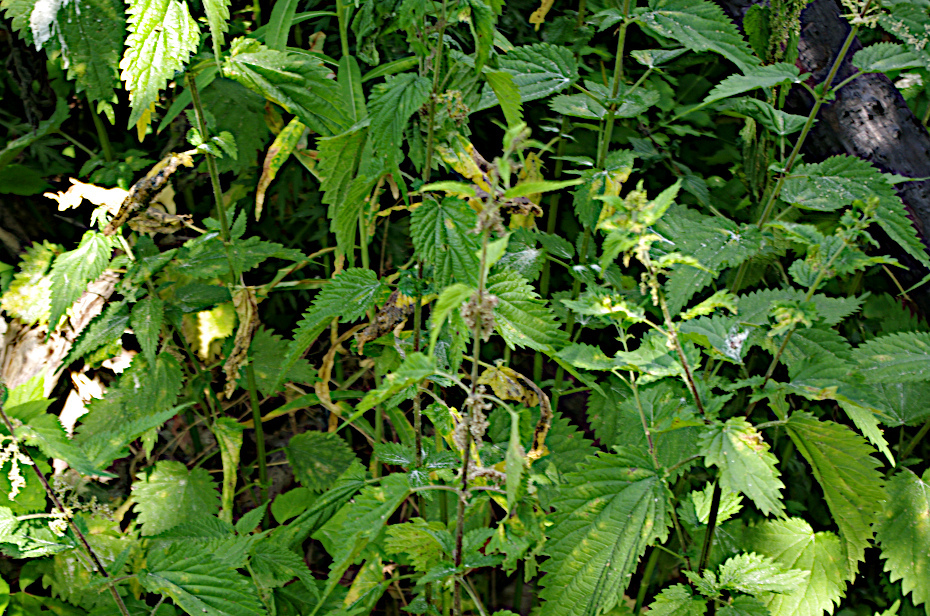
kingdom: Plantae
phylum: Tracheophyta
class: Magnoliopsida
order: Rosales
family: Urticaceae
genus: Urtica
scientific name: Urtica dioica
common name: Common nettle
